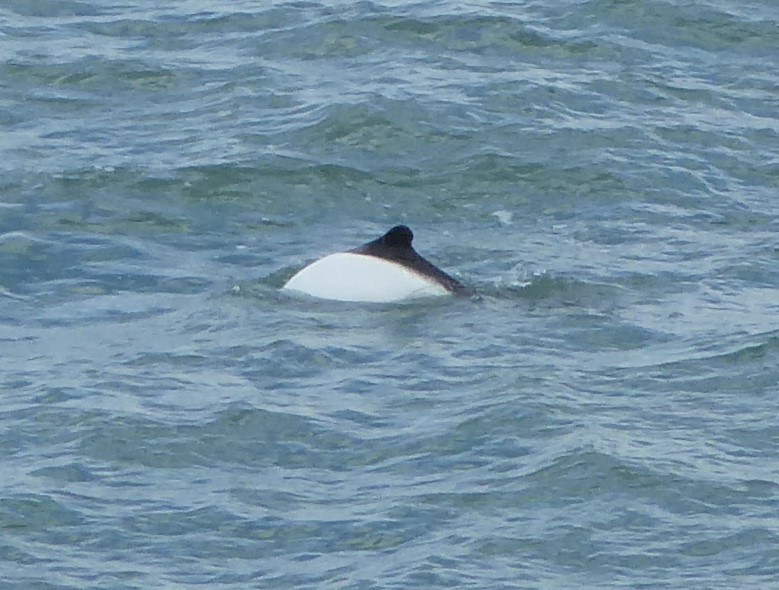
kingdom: Animalia
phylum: Chordata
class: Mammalia
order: Cetacea
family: Delphinidae
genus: Cephalorhynchus
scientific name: Cephalorhynchus commersonii
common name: Commerson's dolphin
